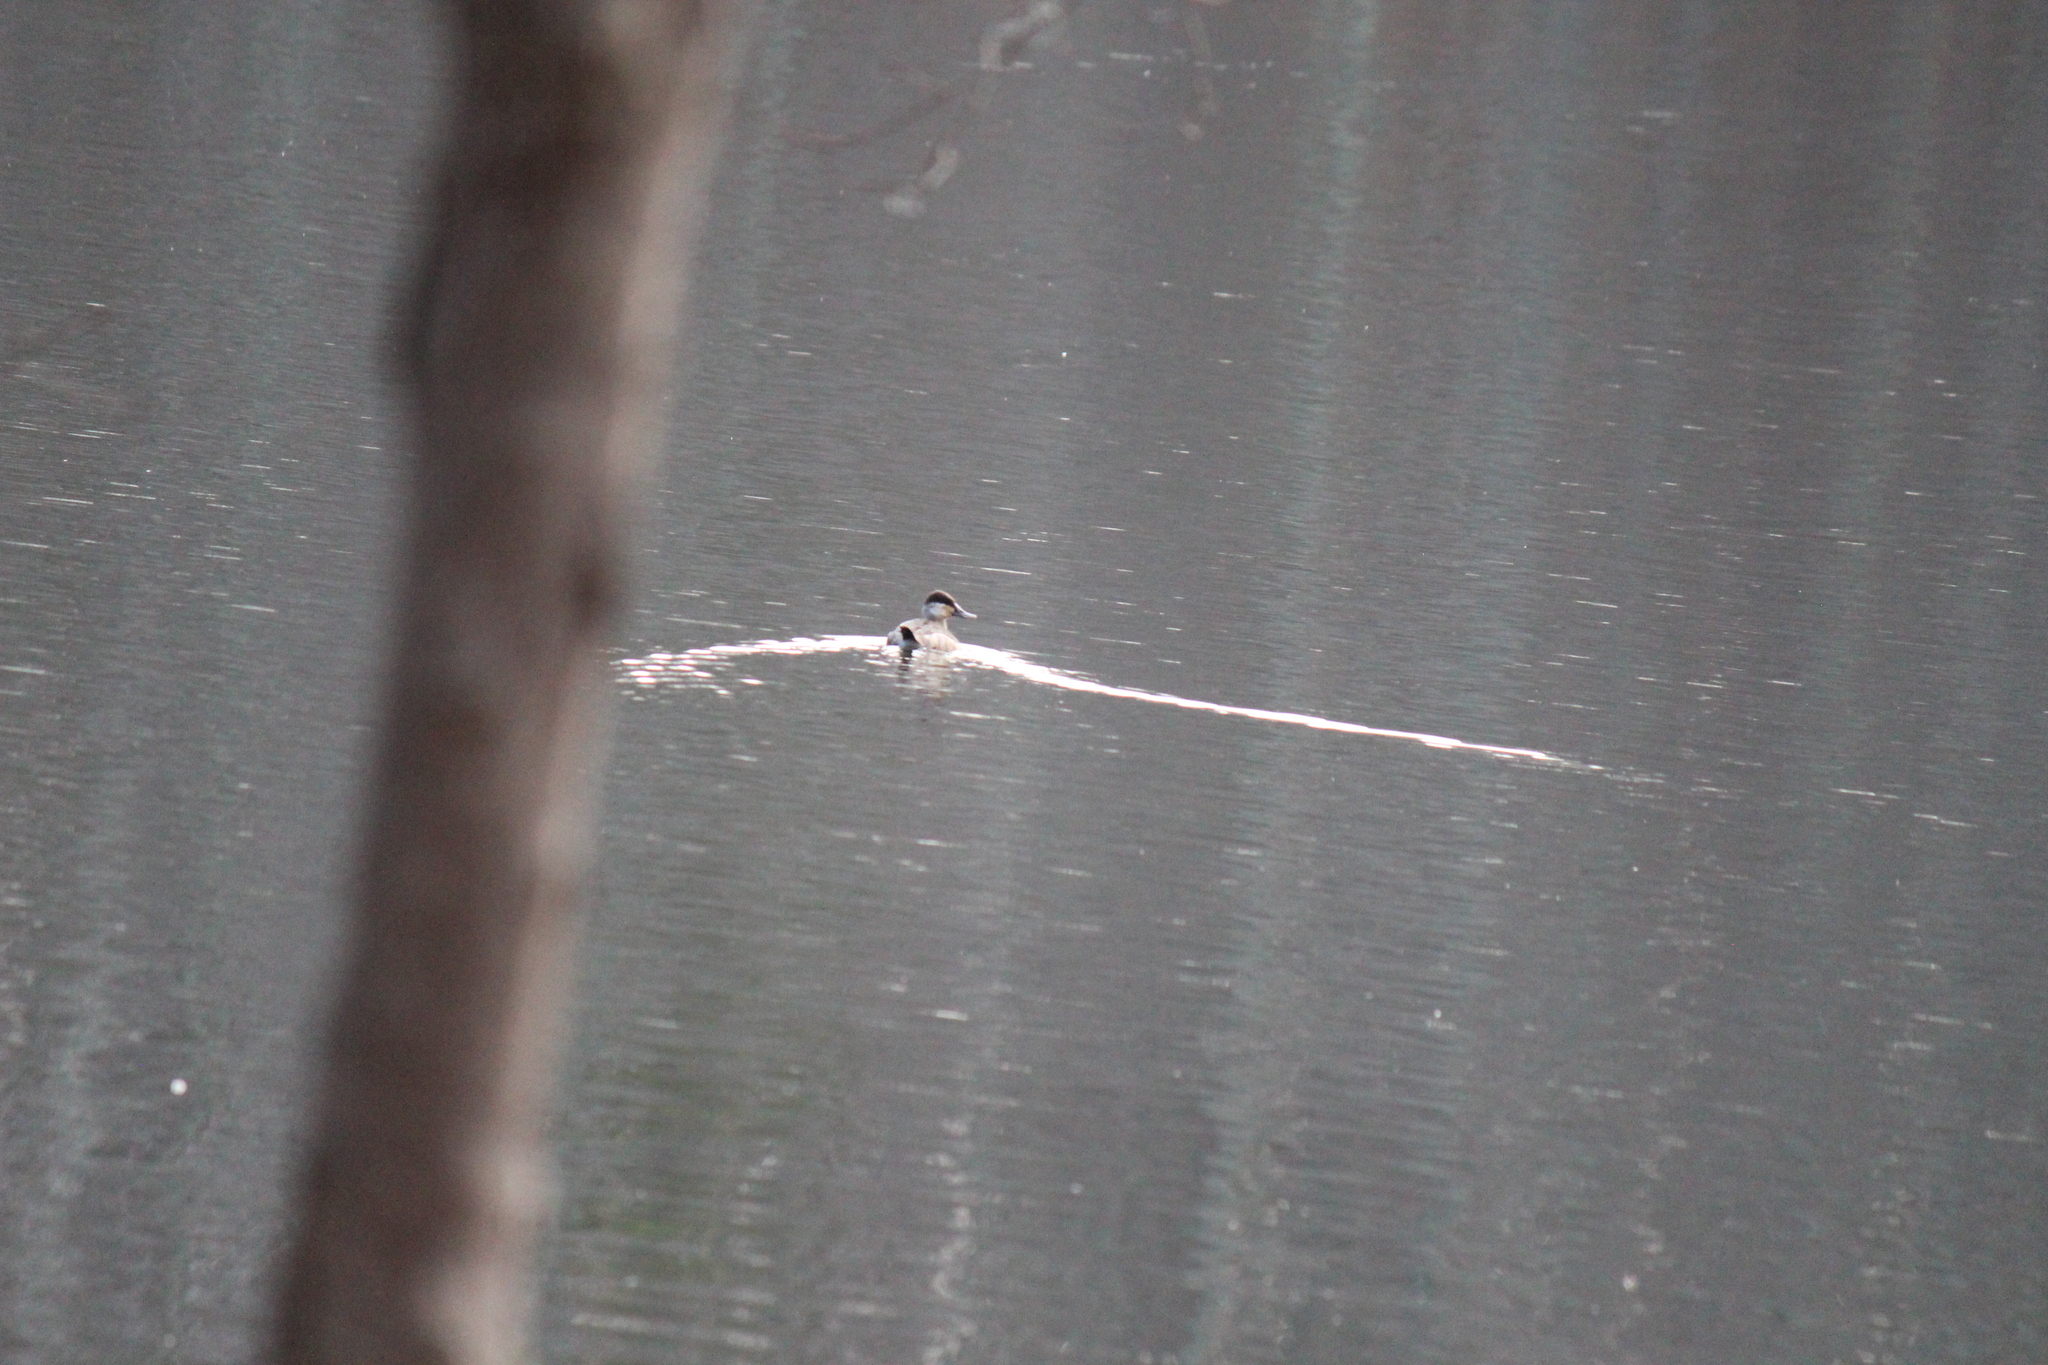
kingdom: Animalia
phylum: Chordata
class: Aves
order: Anseriformes
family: Anatidae
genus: Oxyura
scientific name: Oxyura jamaicensis
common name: Ruddy duck
